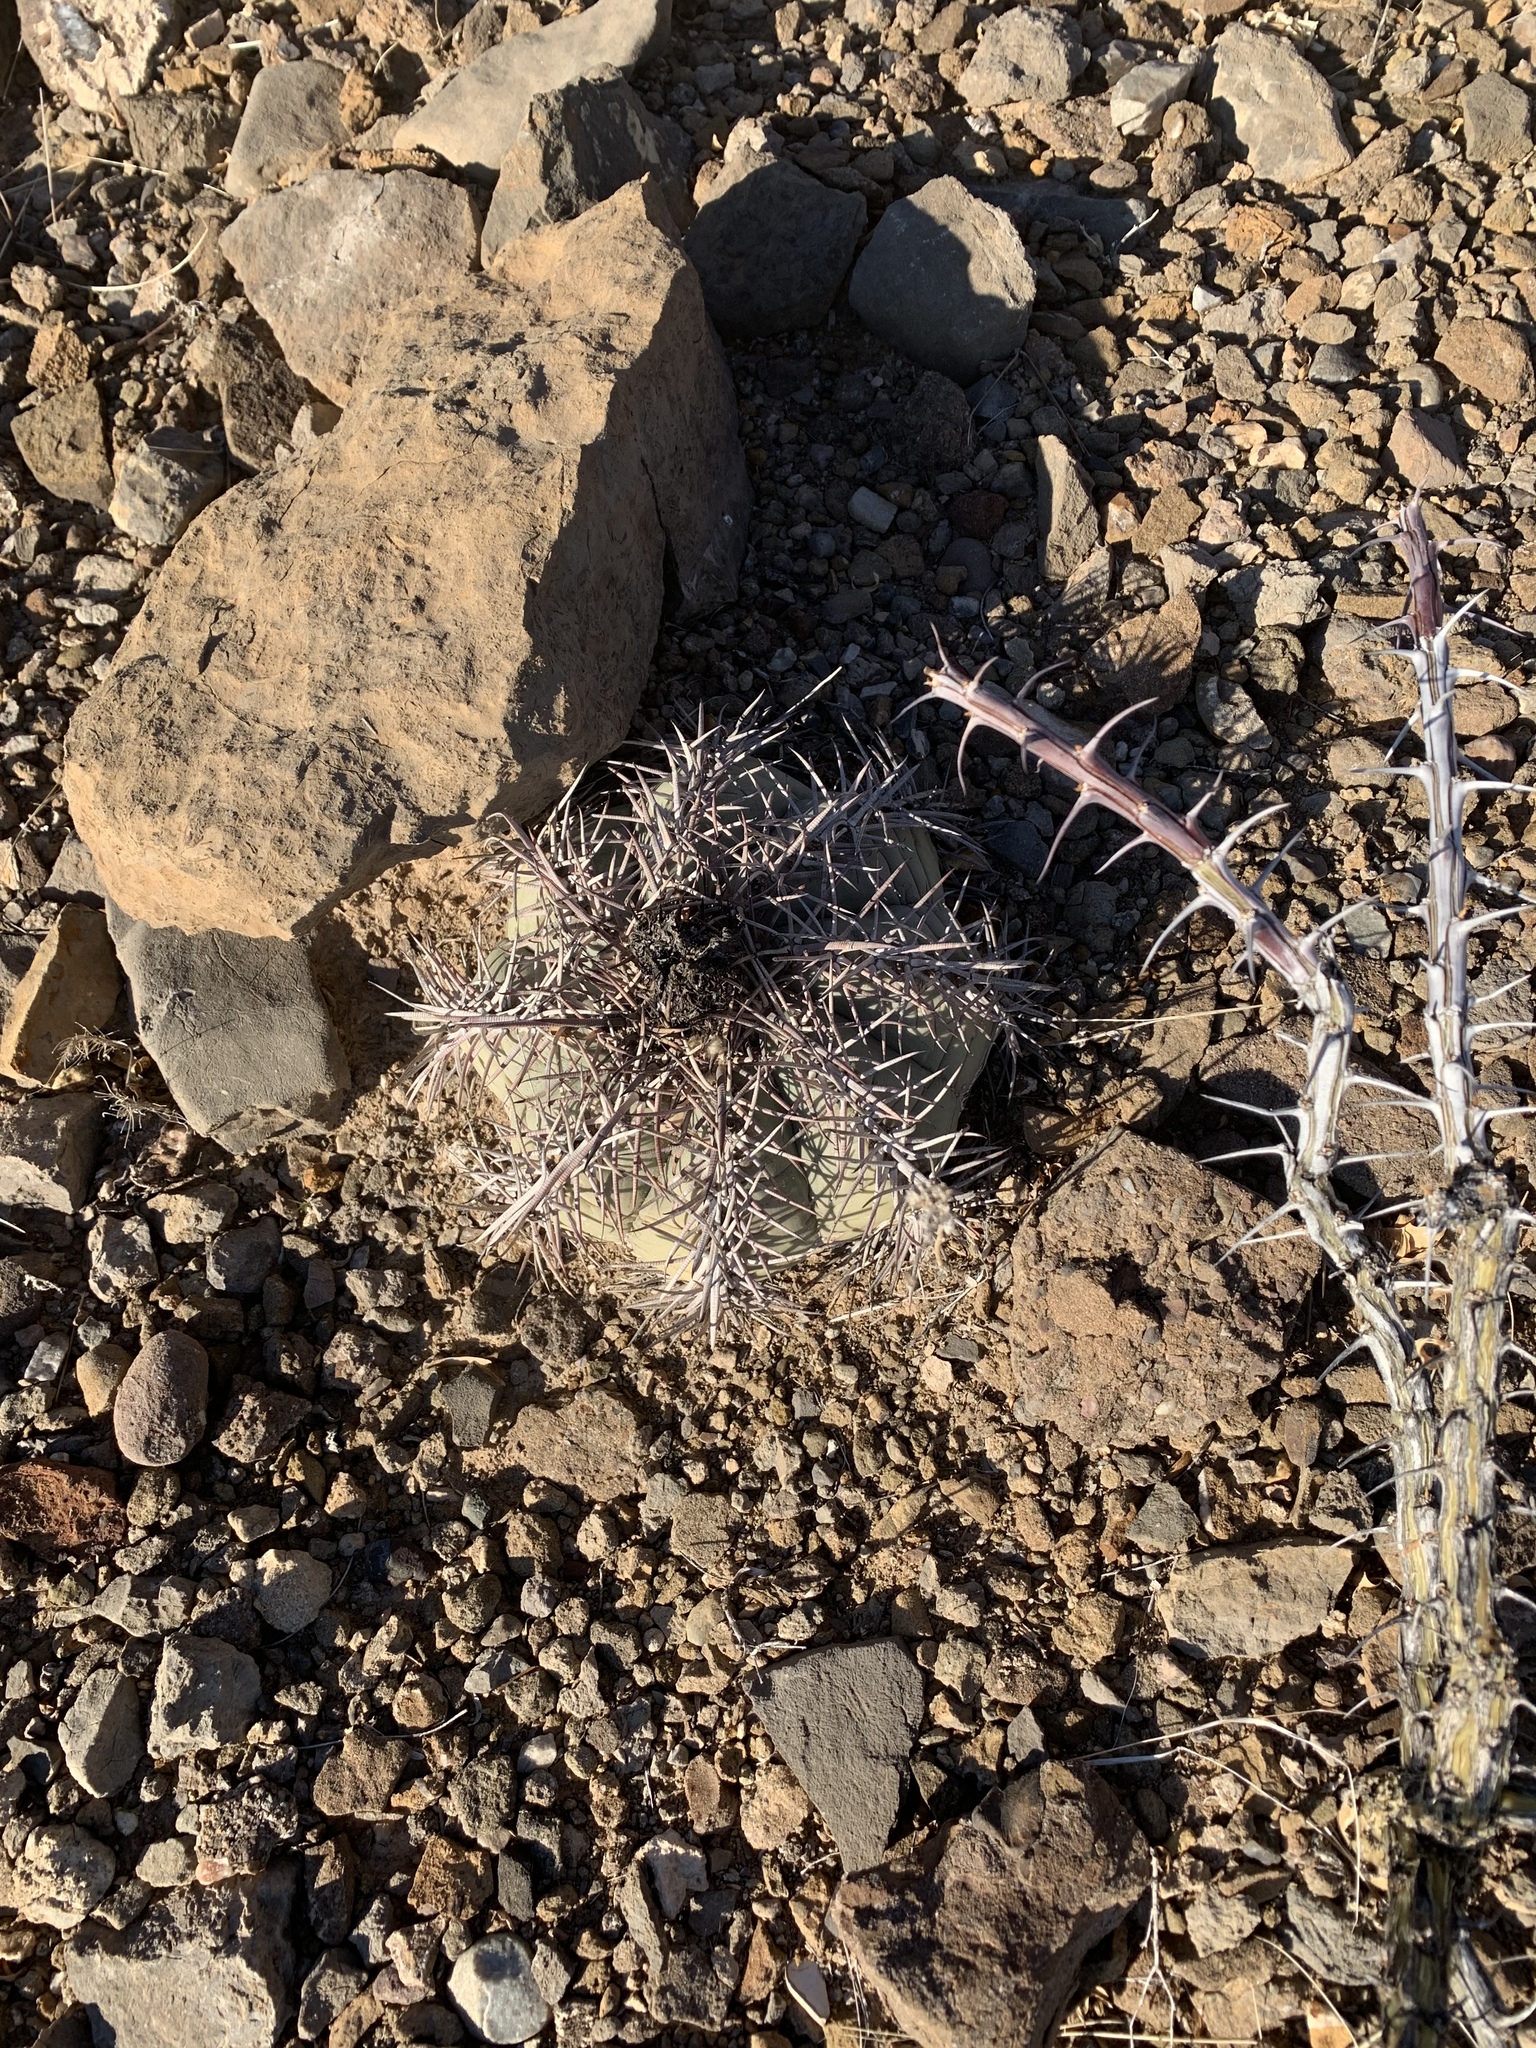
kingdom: Plantae
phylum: Tracheophyta
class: Magnoliopsida
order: Caryophyllales
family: Cactaceae
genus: Echinocactus
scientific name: Echinocactus horizonthalonius
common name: Devilshead
